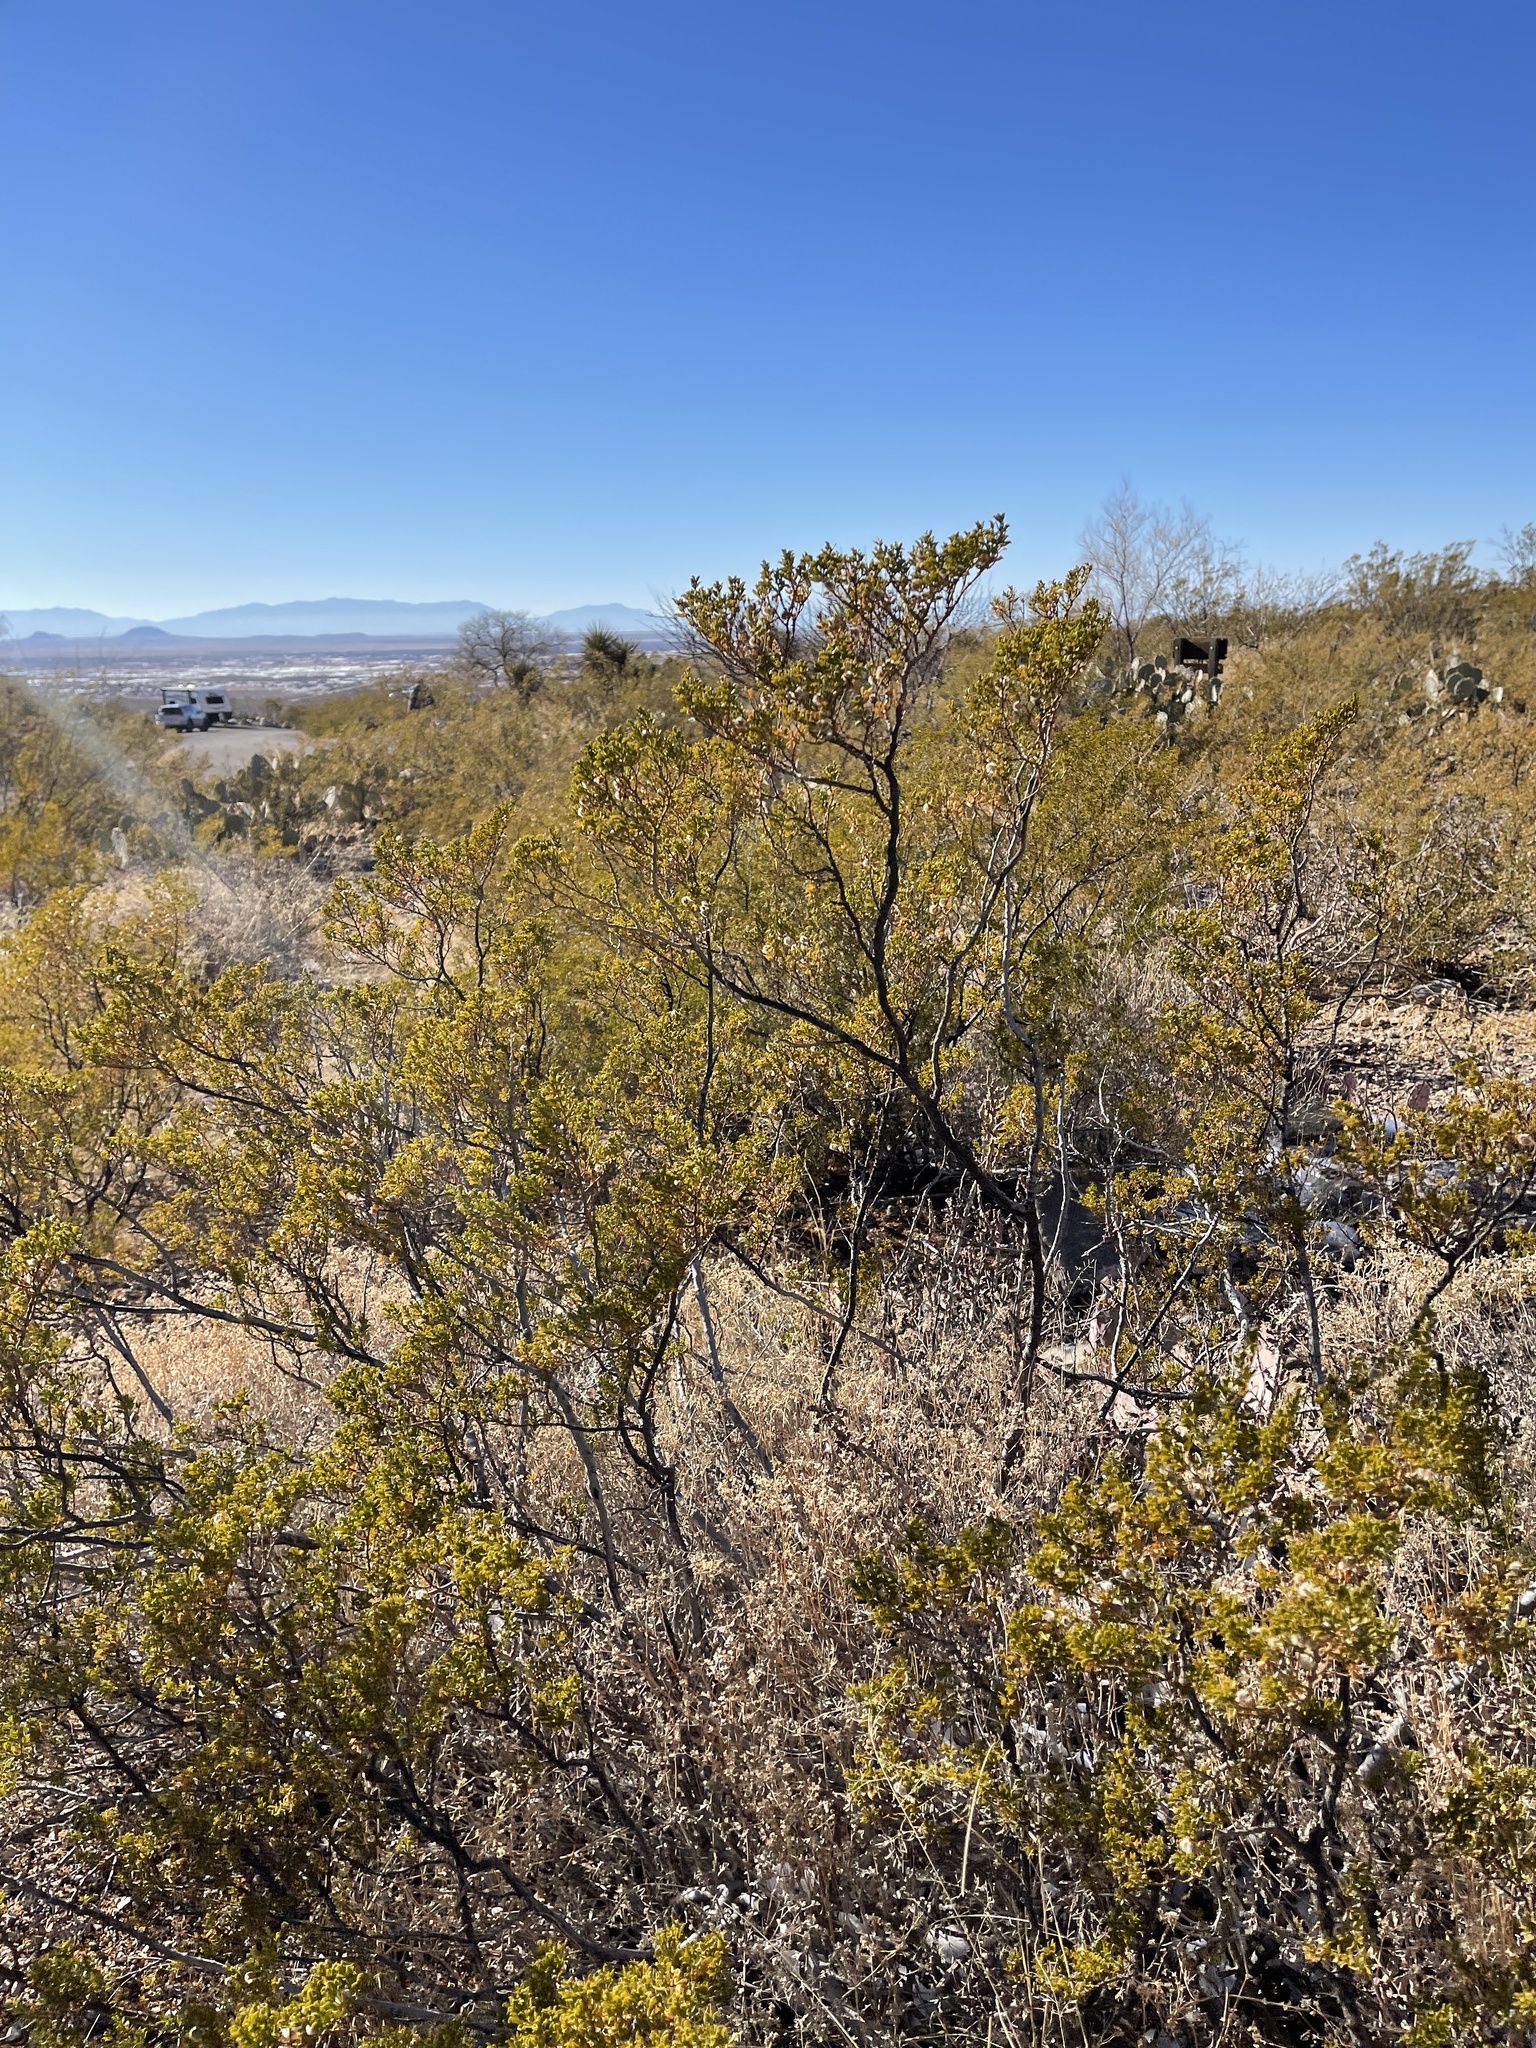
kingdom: Plantae
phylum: Tracheophyta
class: Magnoliopsida
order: Zygophyllales
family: Zygophyllaceae
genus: Larrea
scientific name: Larrea tridentata
